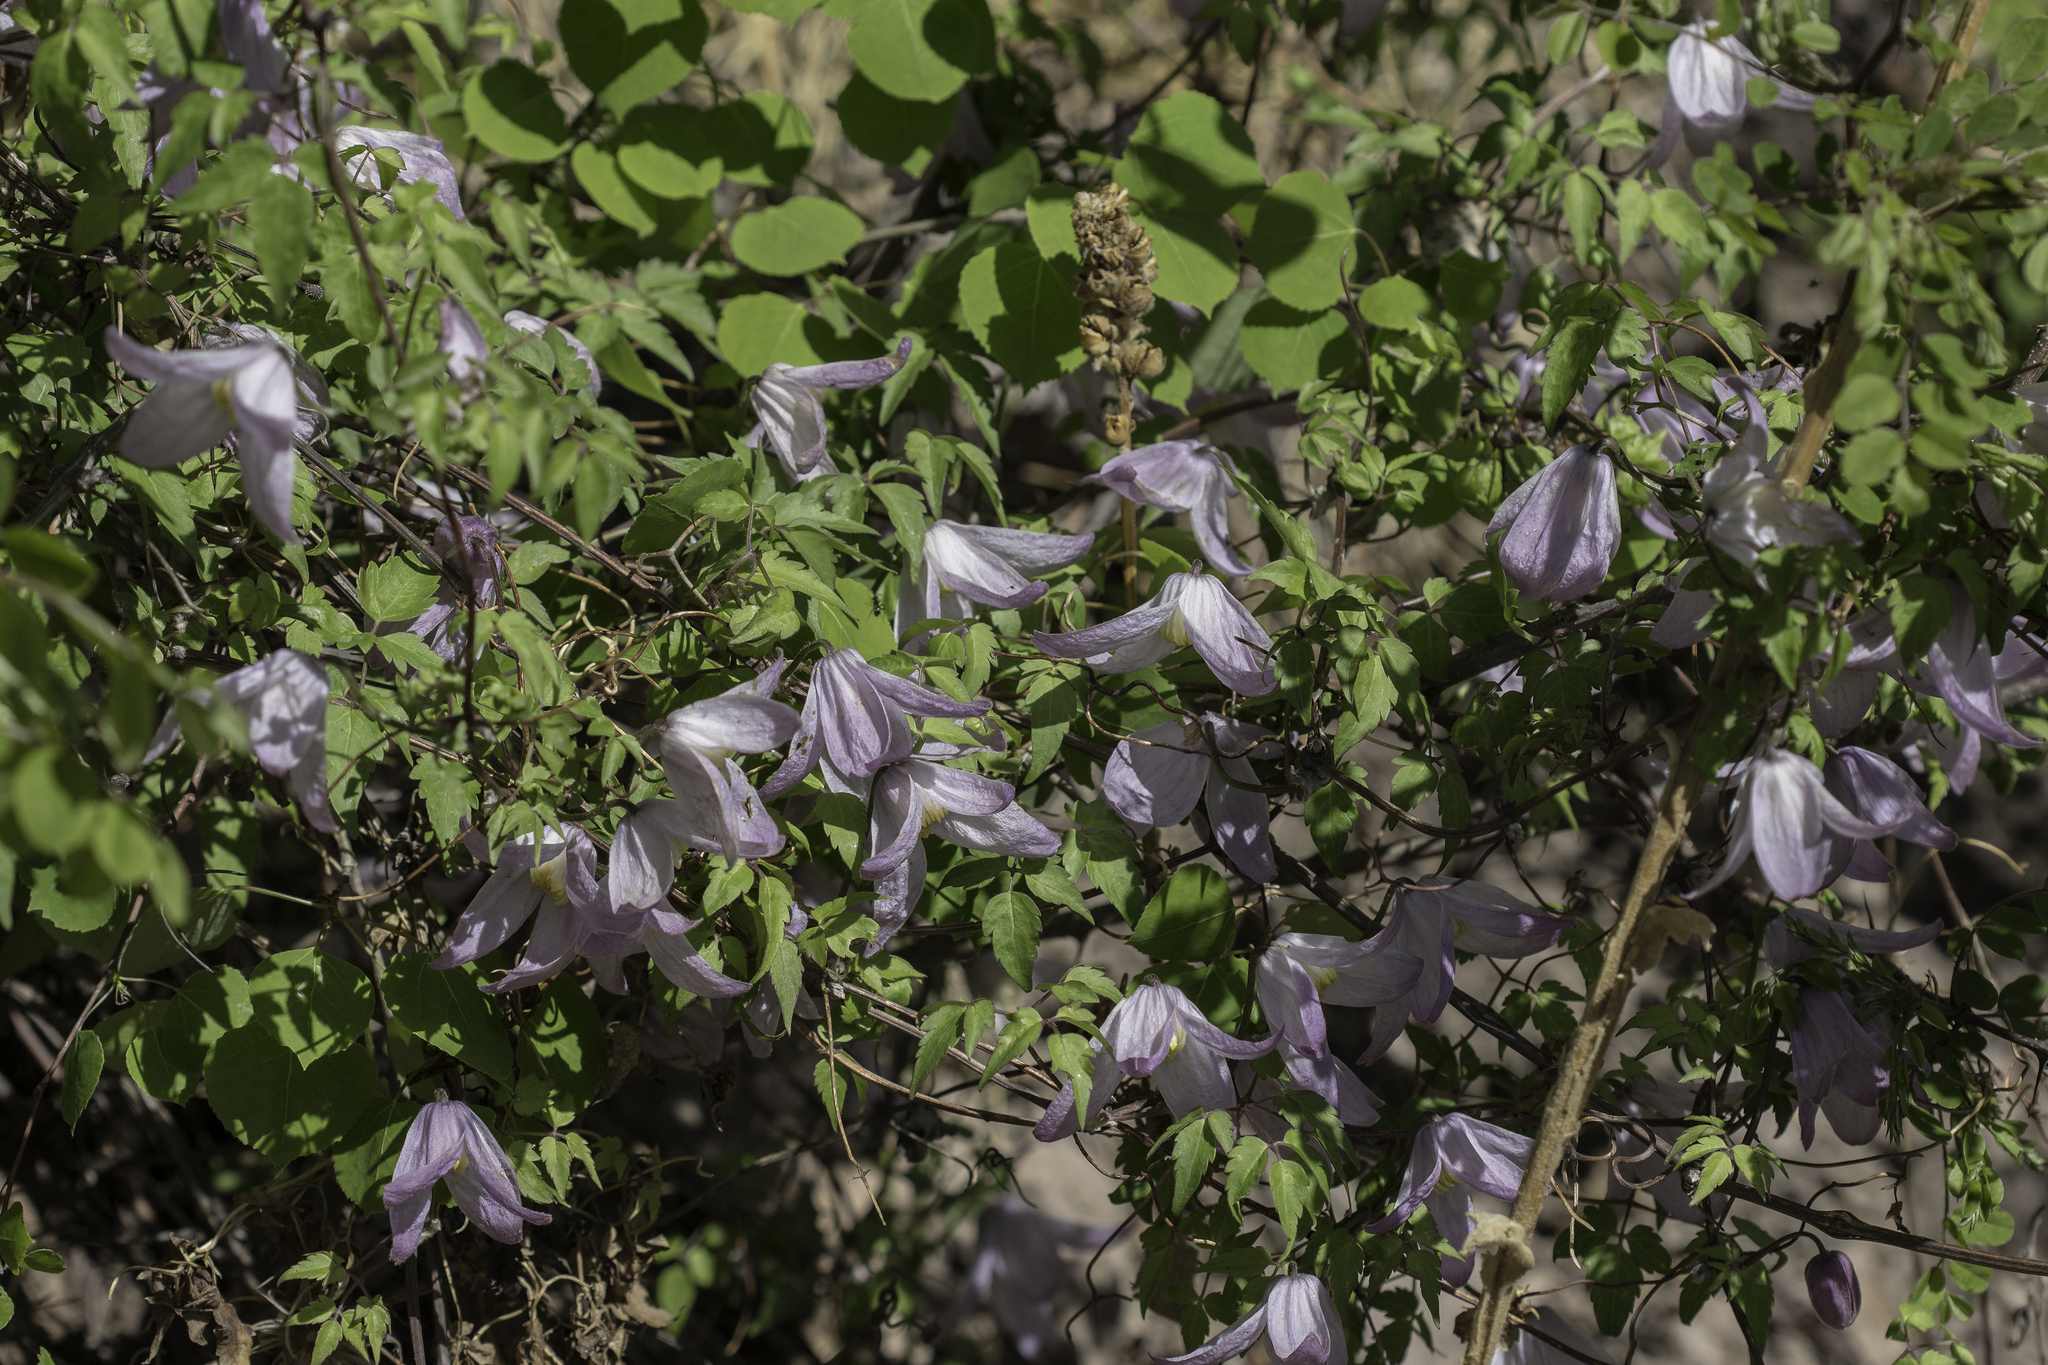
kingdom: Plantae
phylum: Tracheophyta
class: Magnoliopsida
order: Ranunculales
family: Ranunculaceae
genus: Clematis
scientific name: Clematis columbiana
